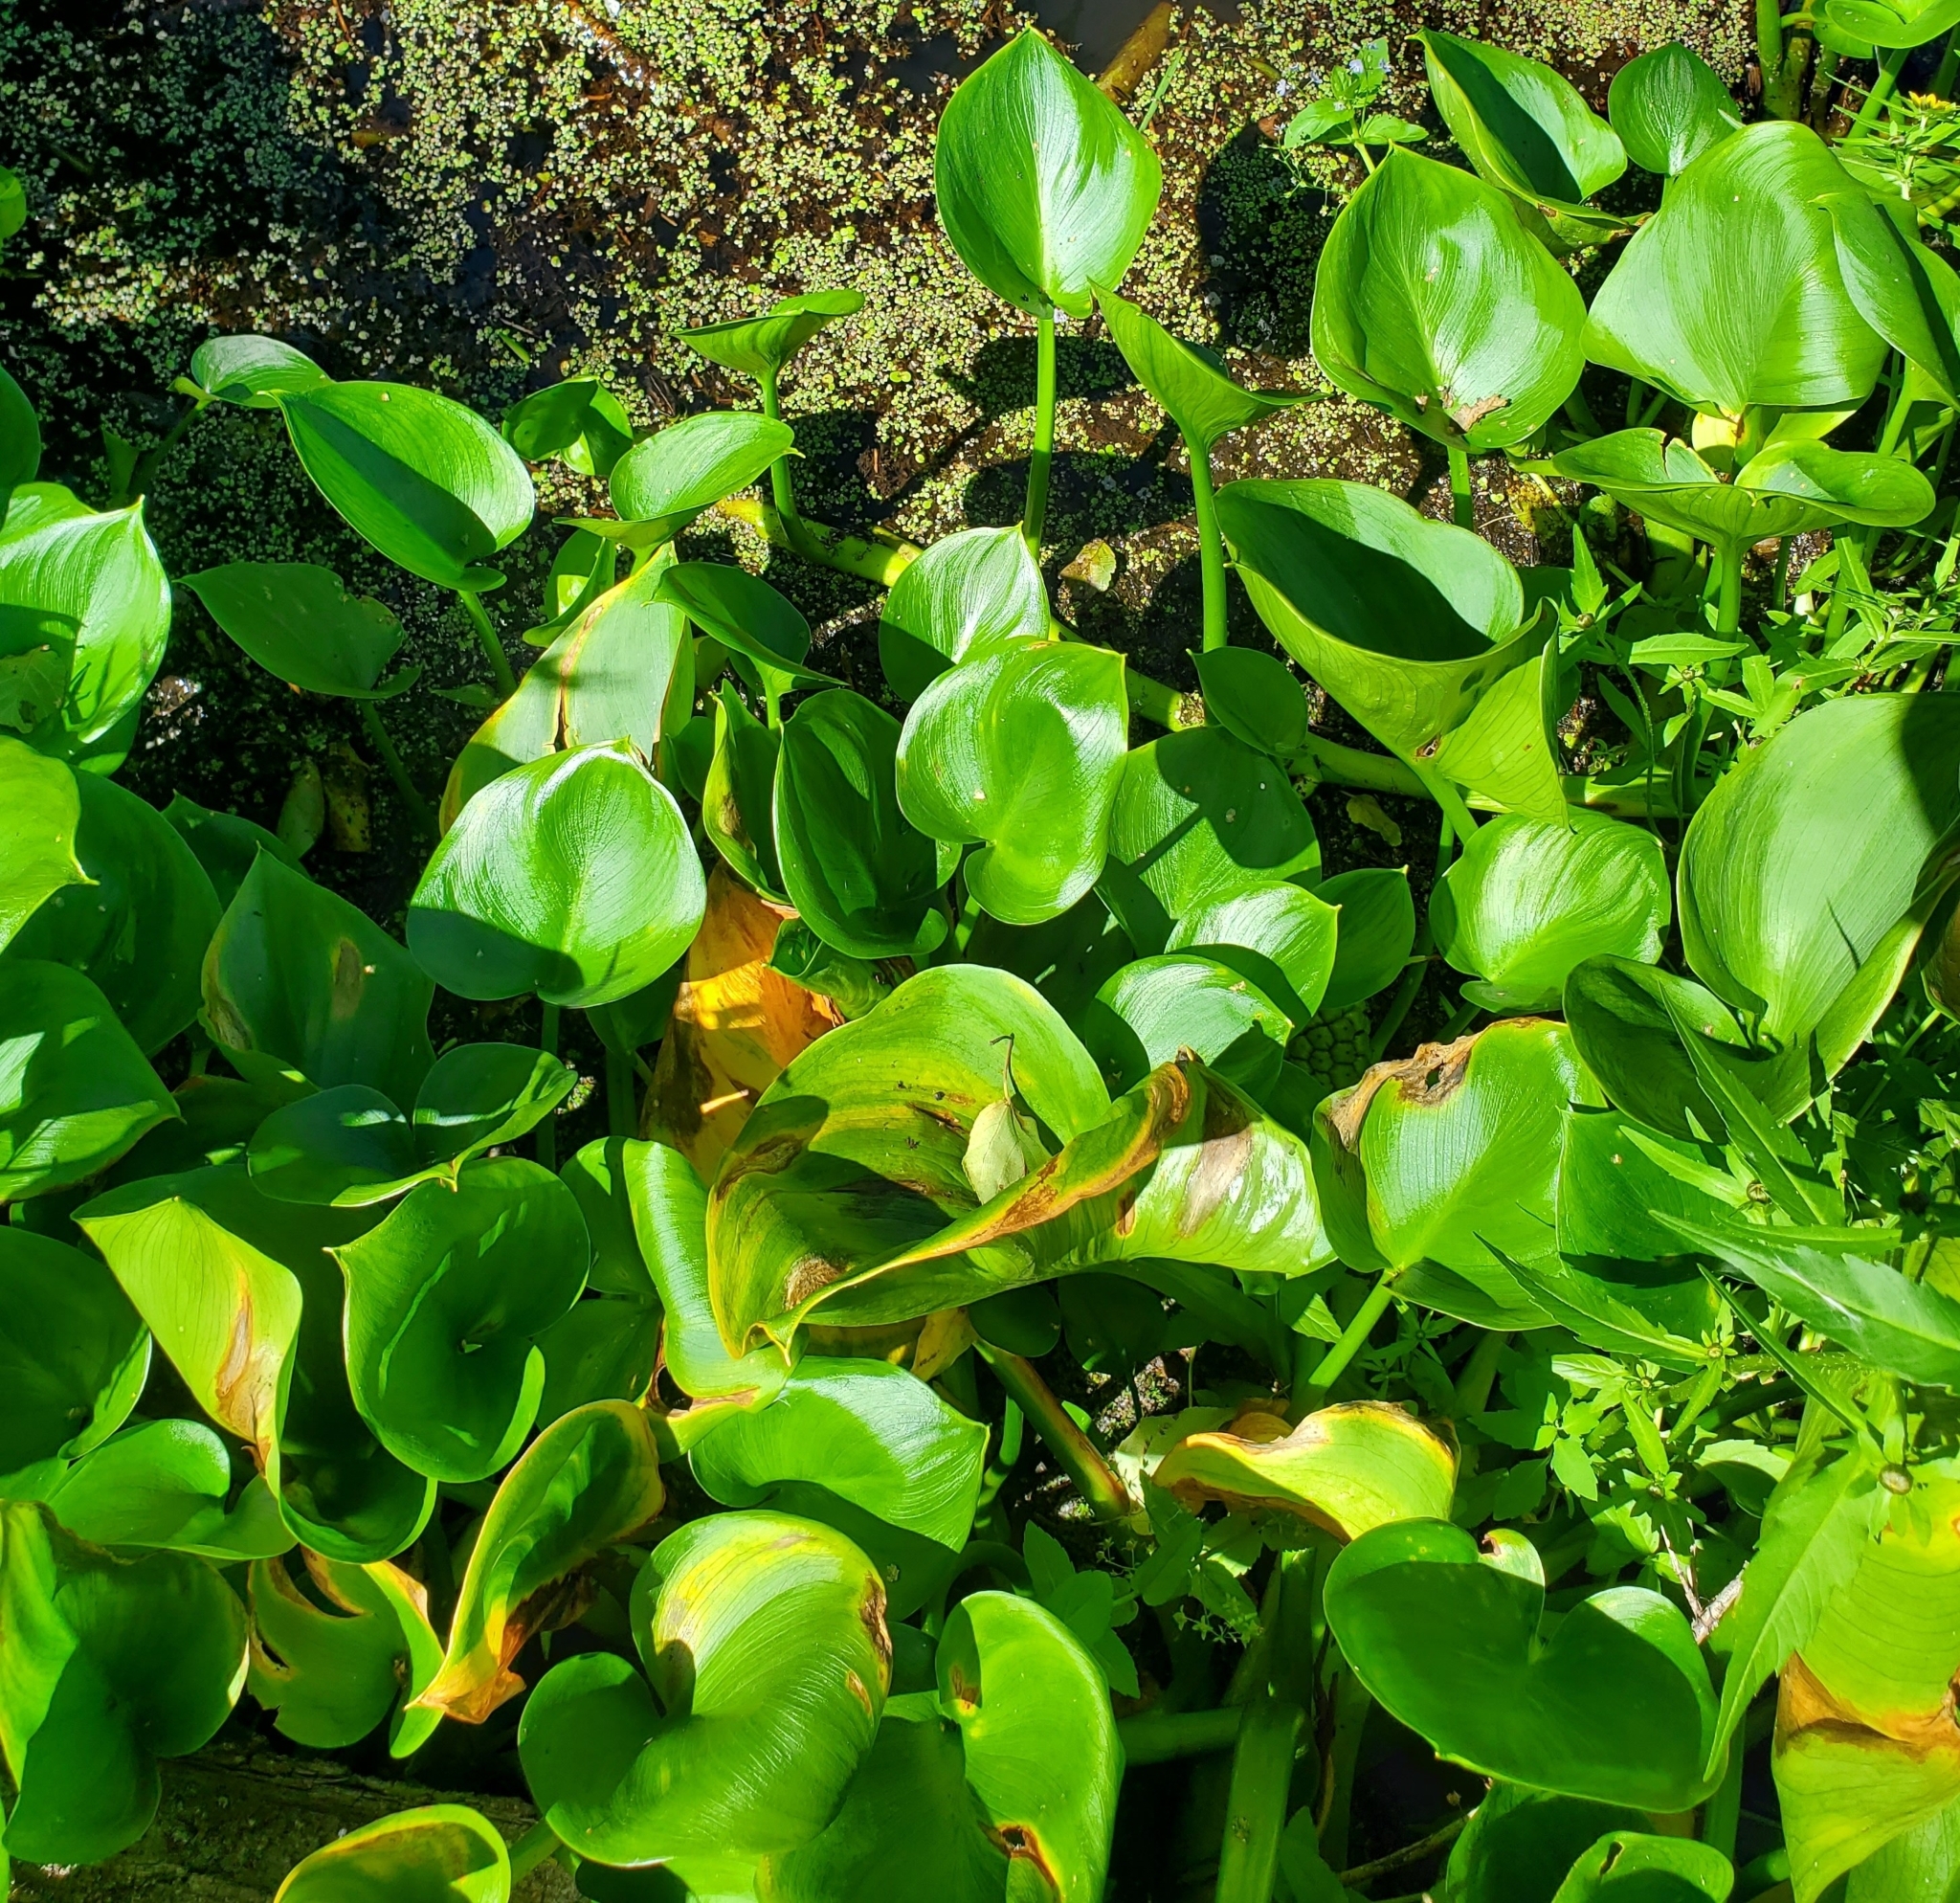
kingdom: Plantae
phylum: Tracheophyta
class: Liliopsida
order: Alismatales
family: Araceae
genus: Calla
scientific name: Calla palustris
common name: Bog arum
